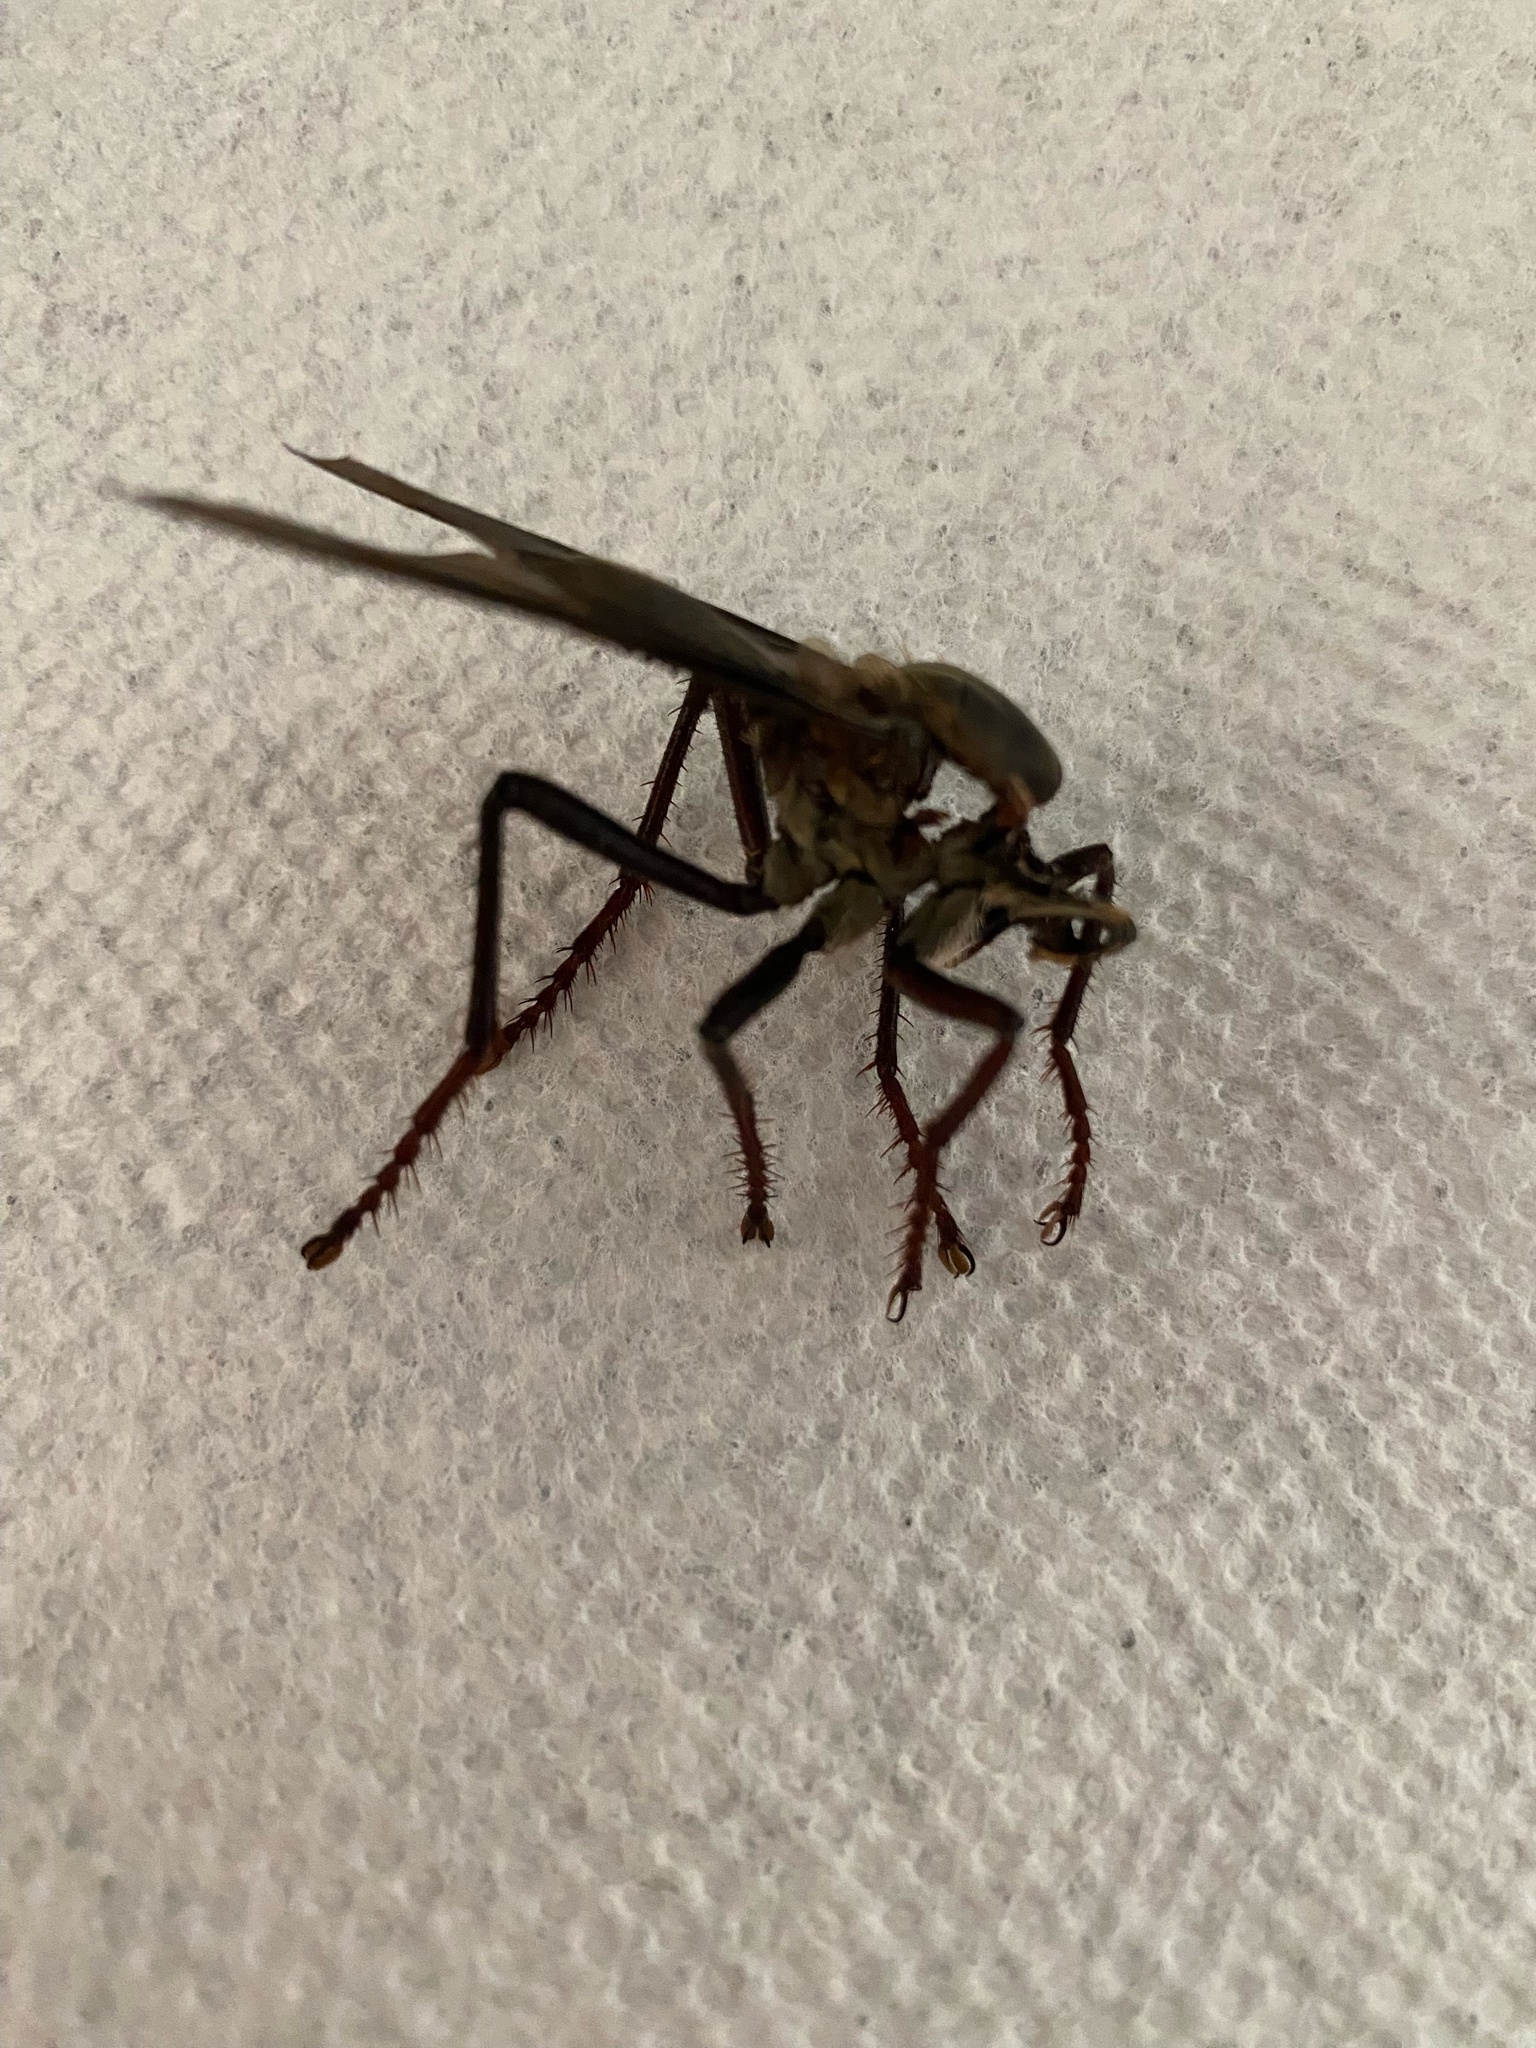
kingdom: Animalia
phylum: Arthropoda
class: Insecta
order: Diptera
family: Asilidae
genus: Microstylum
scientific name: Microstylum morosum
